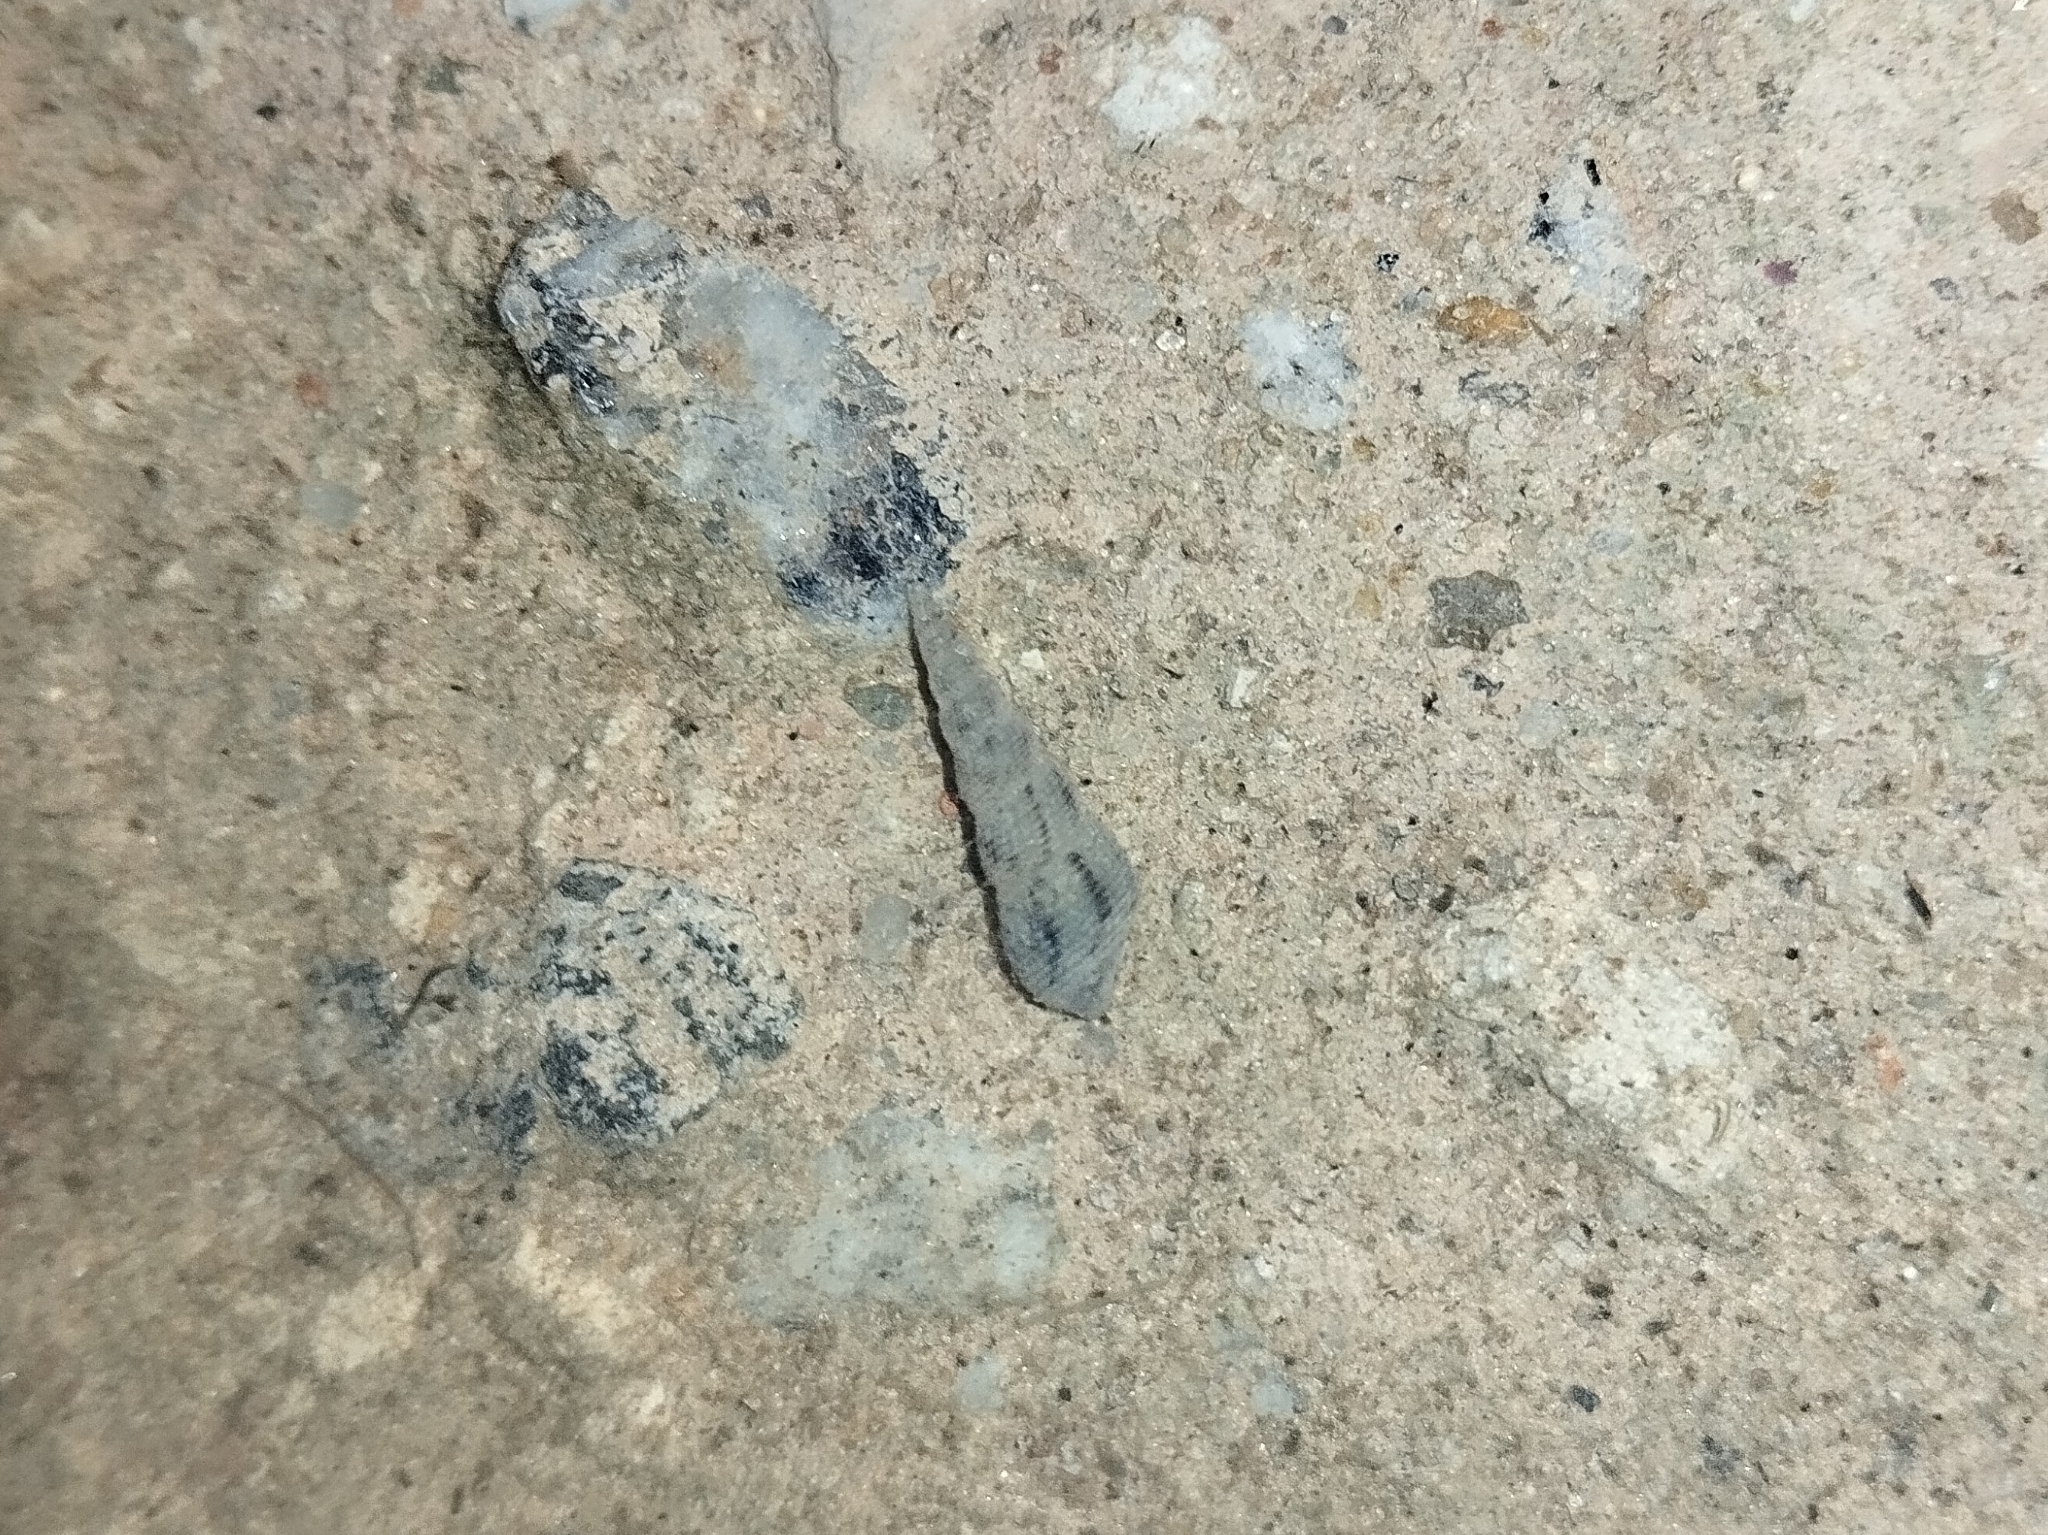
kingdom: Animalia
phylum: Mollusca
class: Gastropoda
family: Thiaridae
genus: Melanoides
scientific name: Melanoides tuberculata
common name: Red-rim melania
